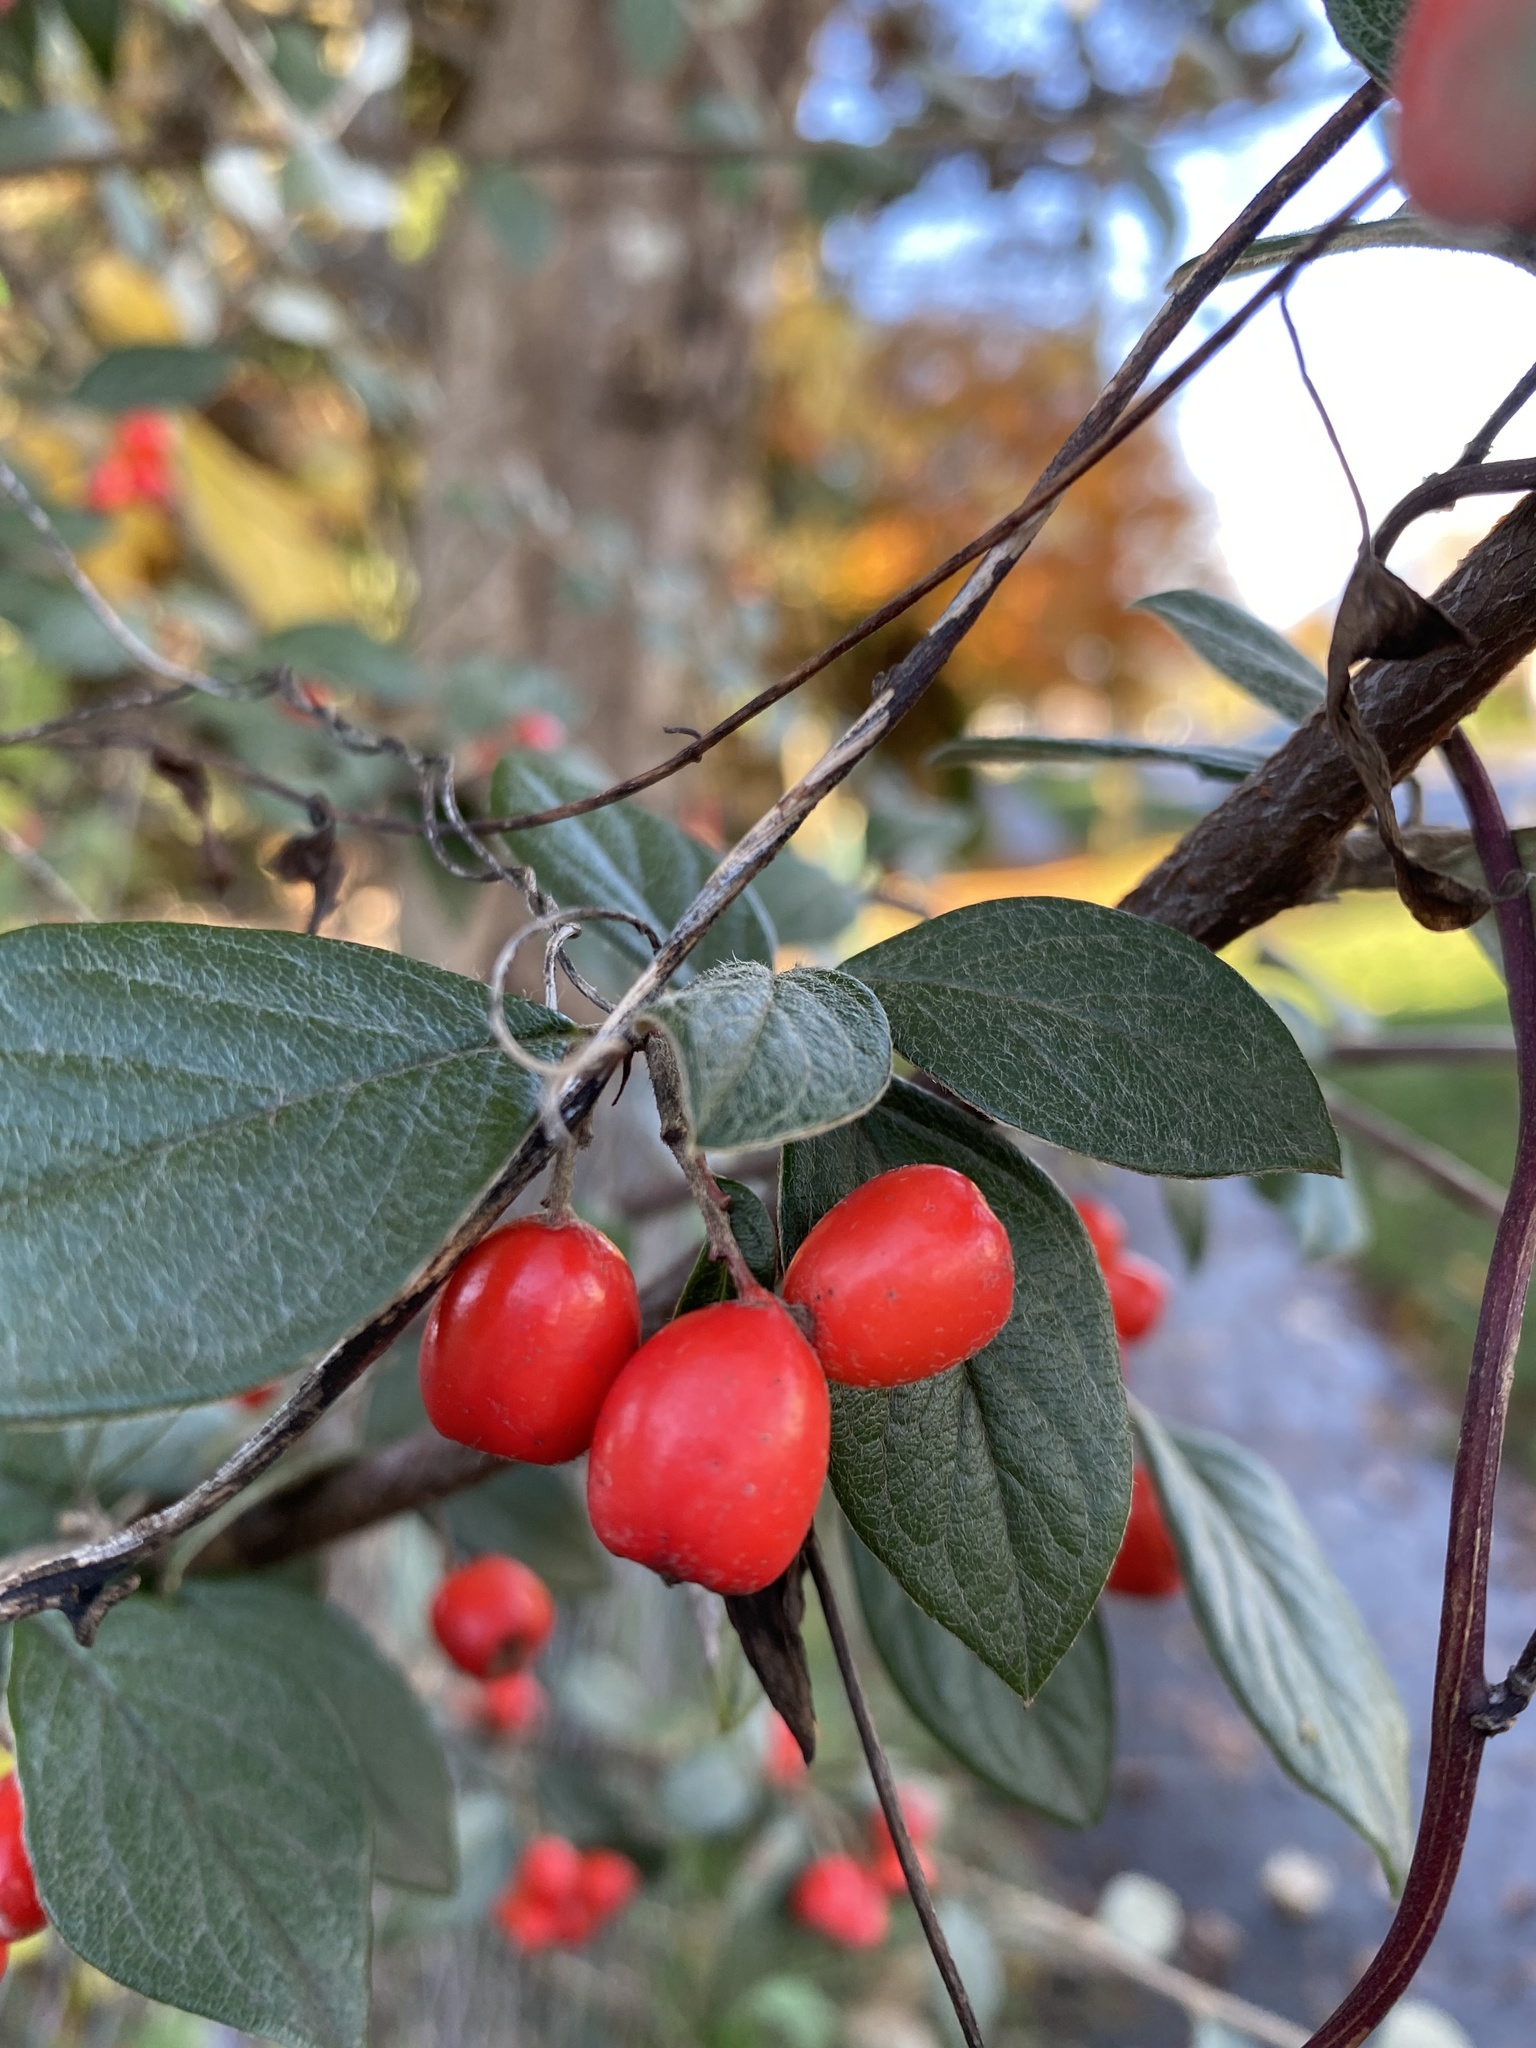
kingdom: Plantae
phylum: Tracheophyta
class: Magnoliopsida
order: Rosales
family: Rosaceae
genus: Cotoneaster
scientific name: Cotoneaster simonsii
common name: Himalayan cotoneaster
